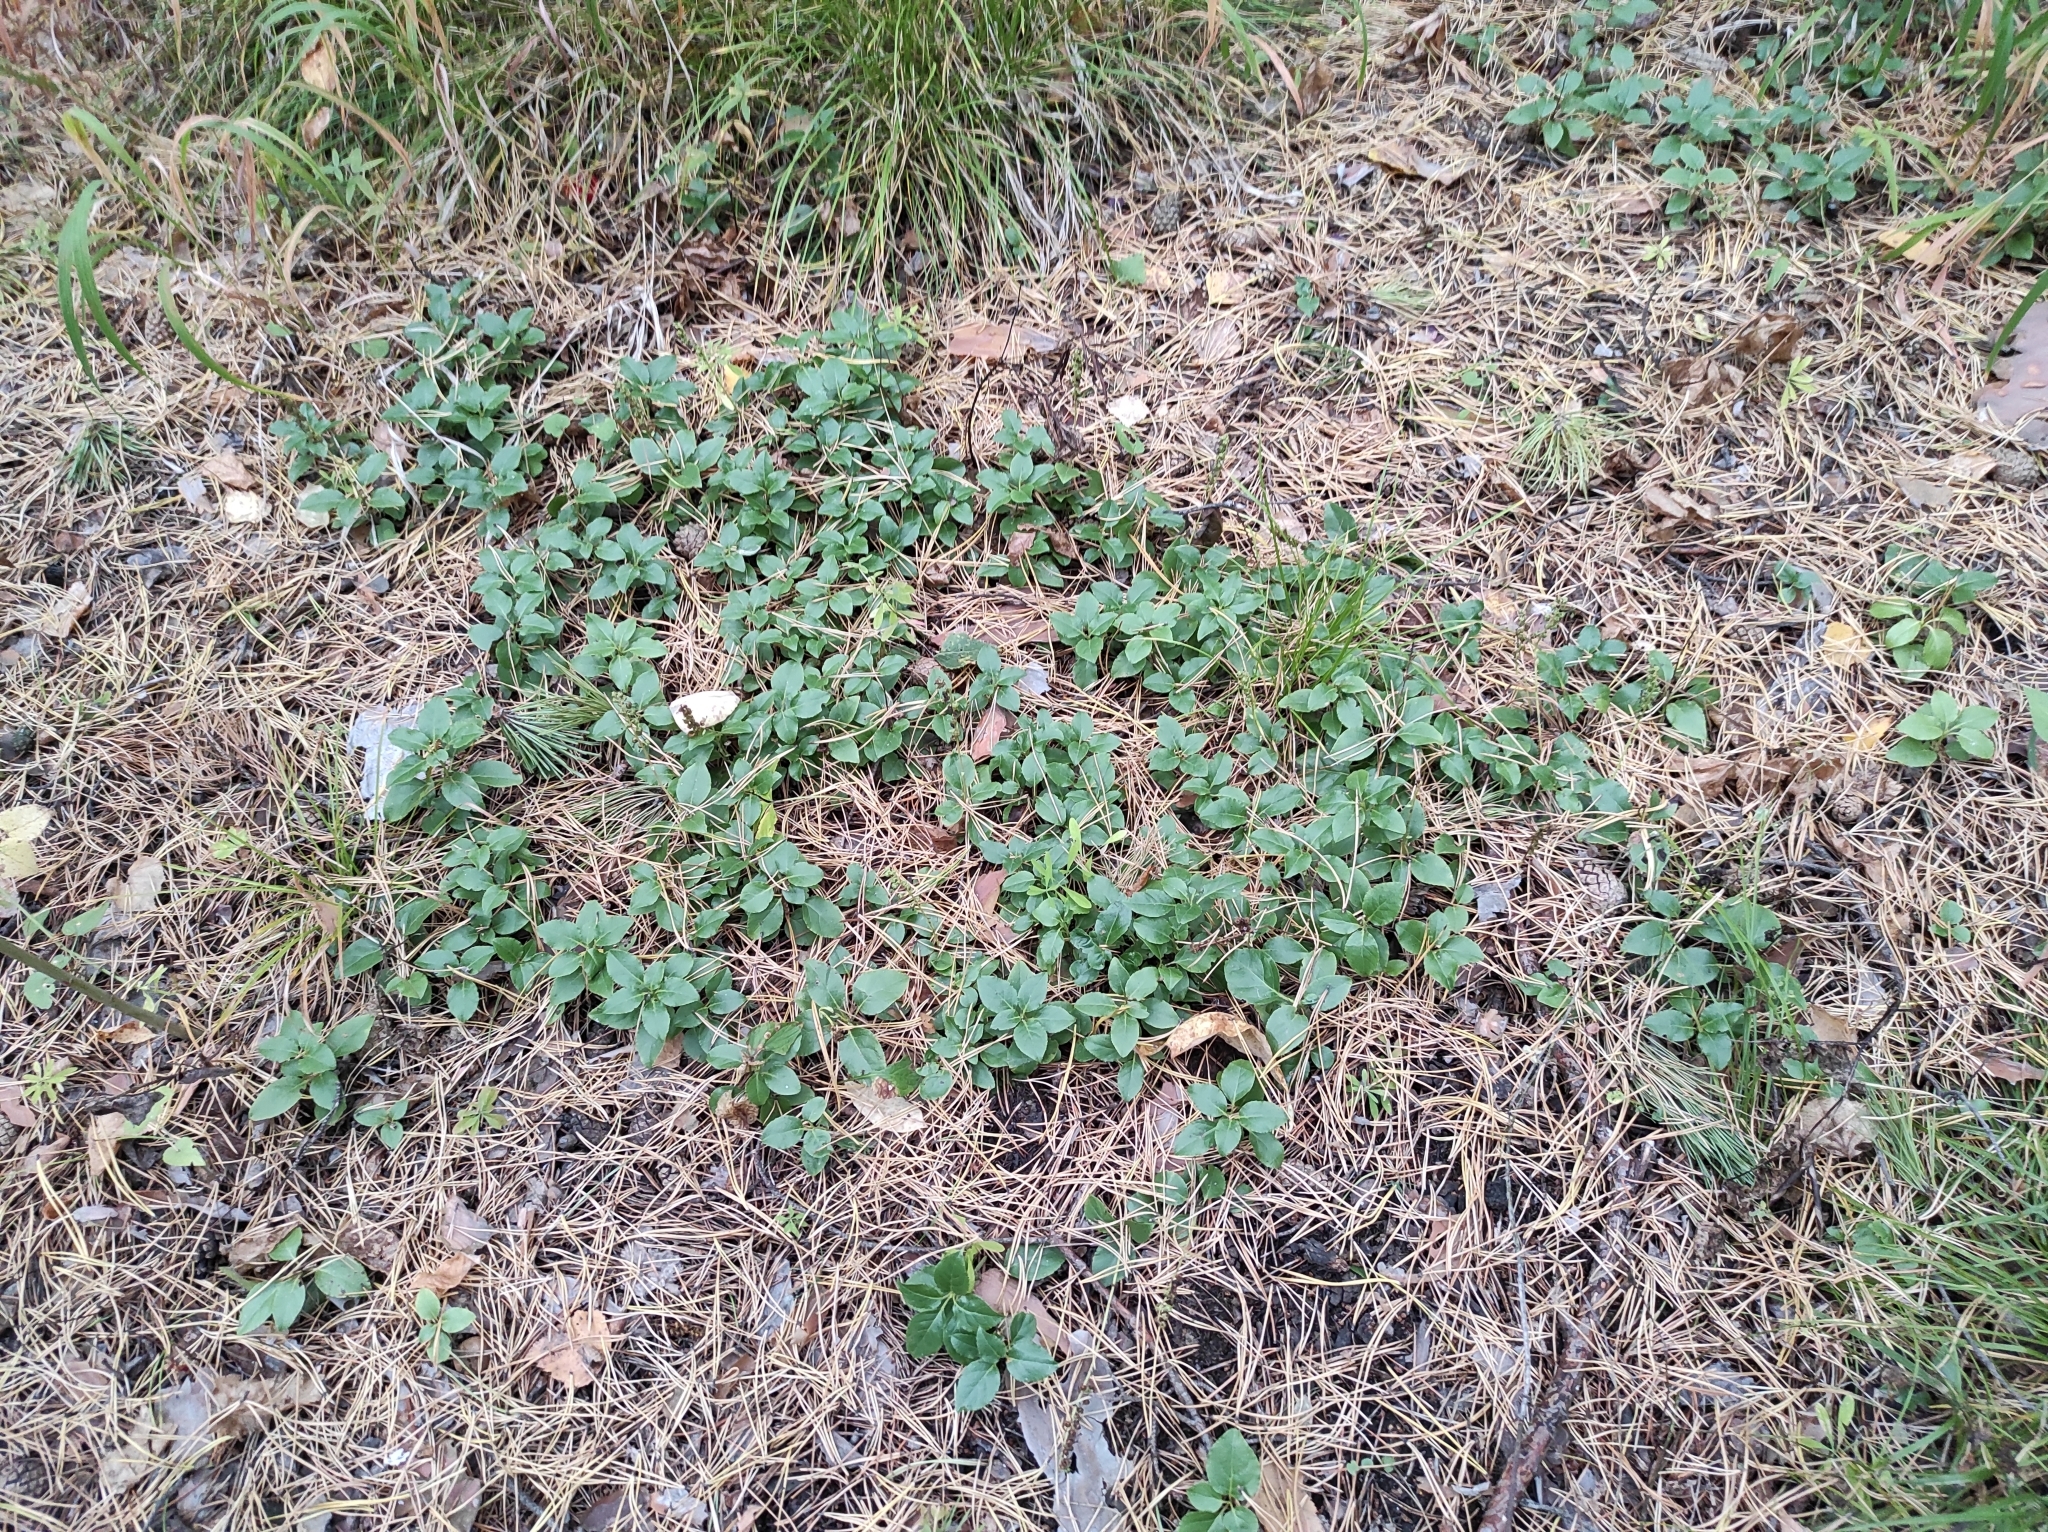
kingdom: Plantae
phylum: Tracheophyta
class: Magnoliopsida
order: Ericales
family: Ericaceae
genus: Orthilia
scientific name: Orthilia secunda
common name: One-sided orthilia
